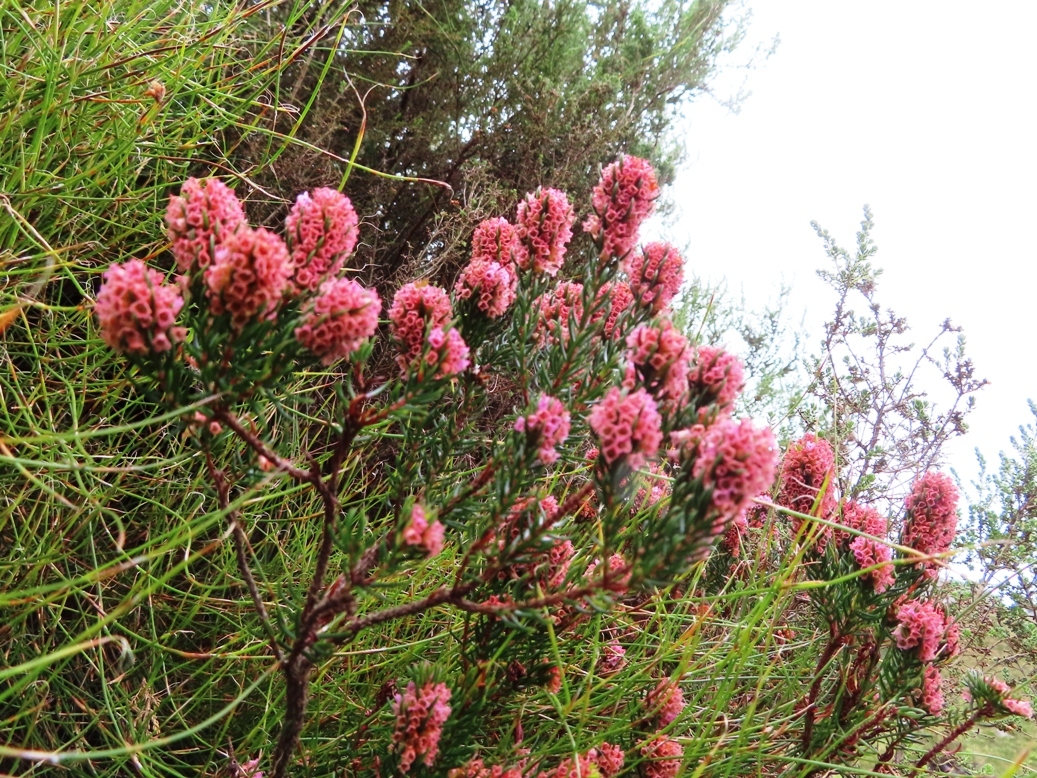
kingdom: Plantae
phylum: Tracheophyta
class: Magnoliopsida
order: Ericales
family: Ericaceae
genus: Erica
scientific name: Erica dodii
